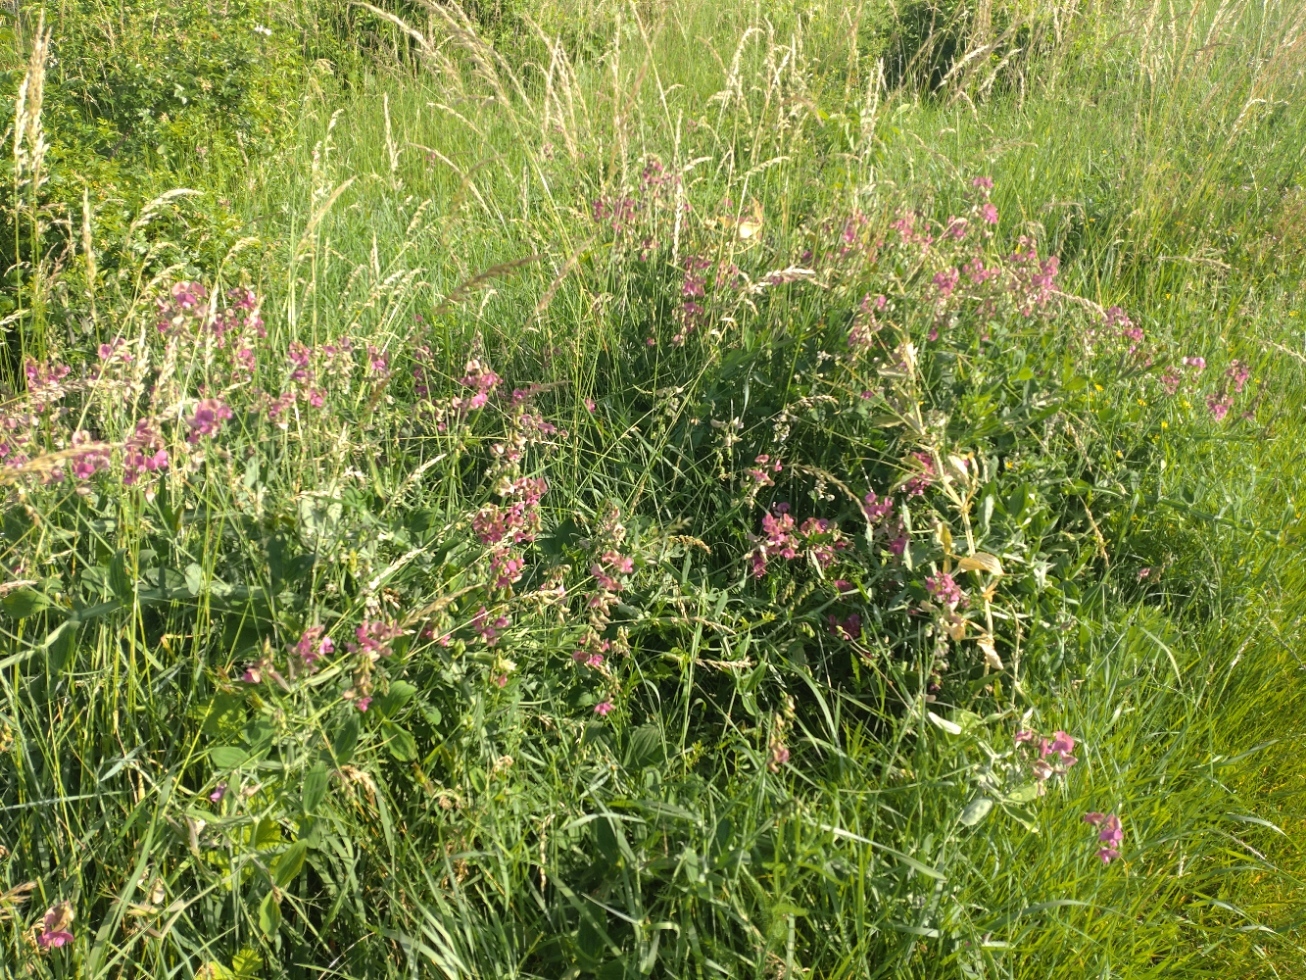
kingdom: Plantae
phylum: Tracheophyta
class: Magnoliopsida
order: Fabales
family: Fabaceae
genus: Lathyrus
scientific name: Lathyrus latifolius
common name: Perennial pea
